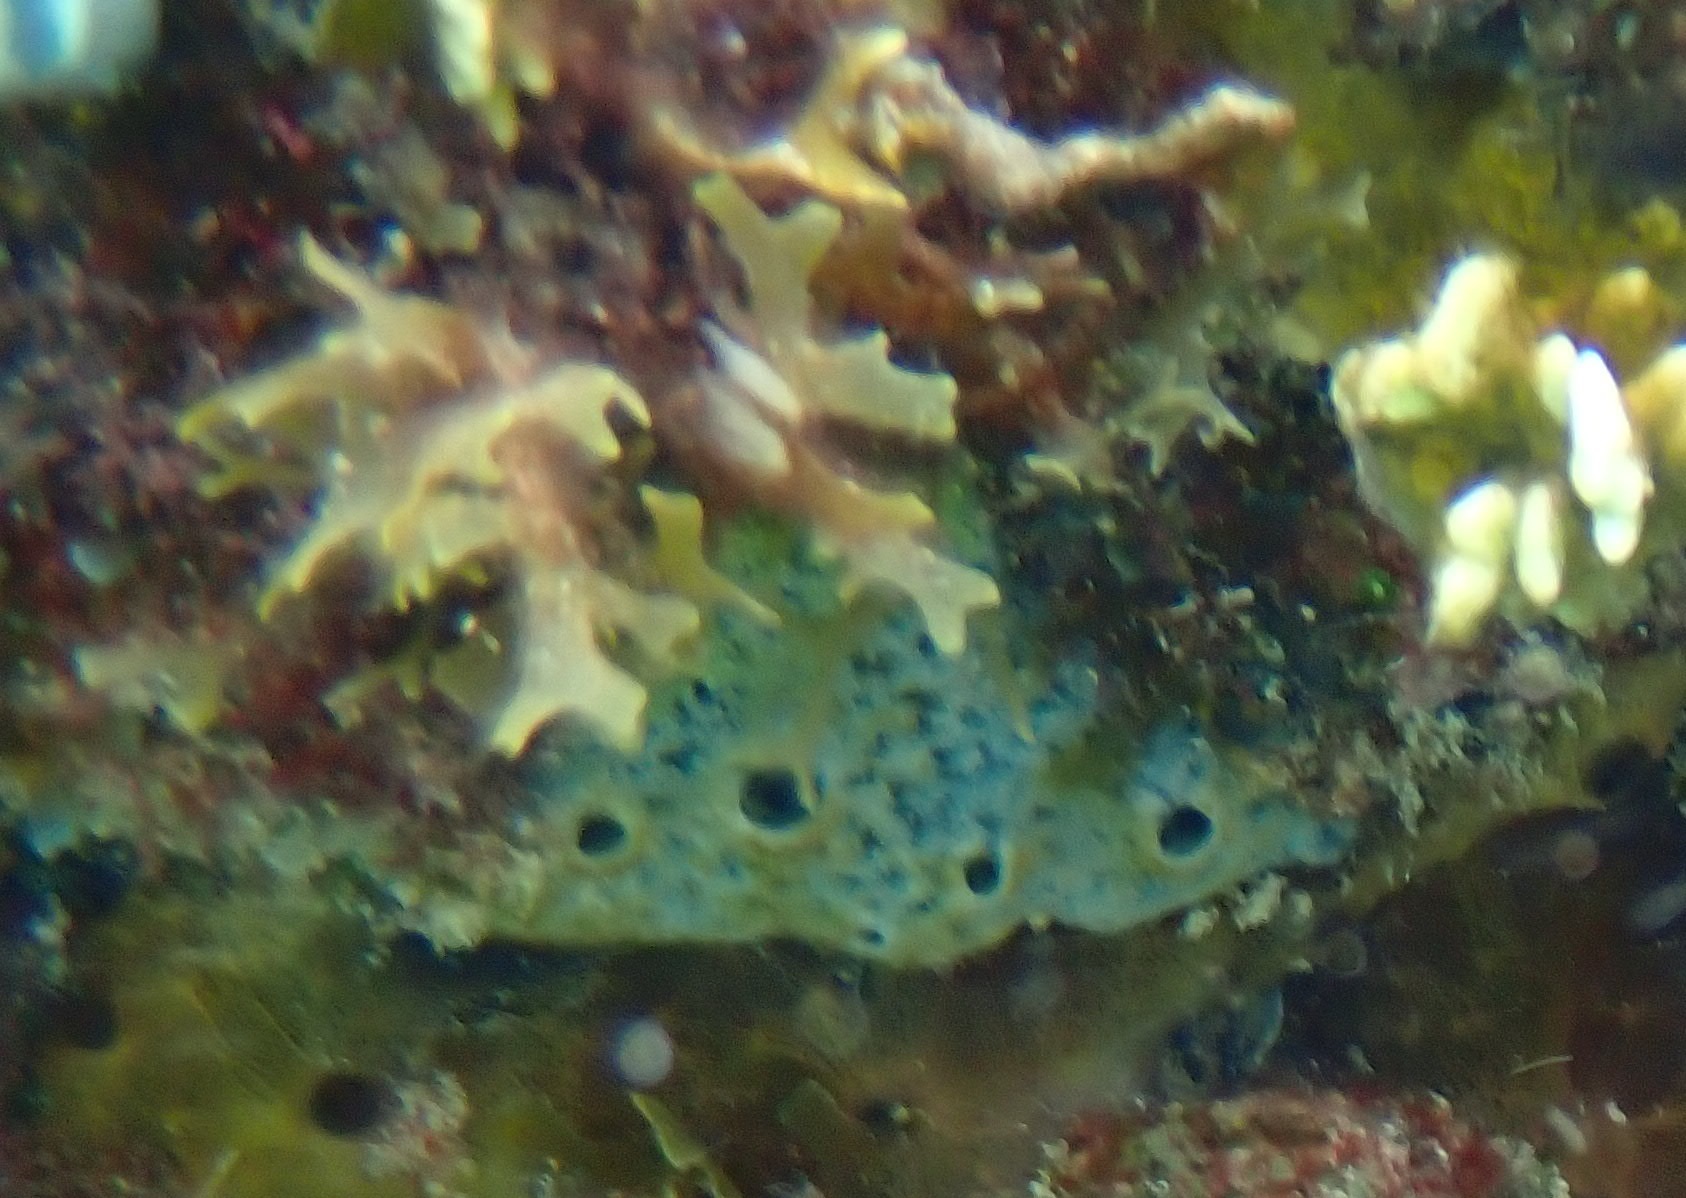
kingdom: Animalia
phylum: Porifera
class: Demospongiae
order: Haplosclerida
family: Niphatidae
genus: Niphates
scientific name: Niphates erecta
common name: Lavender rope sponge
